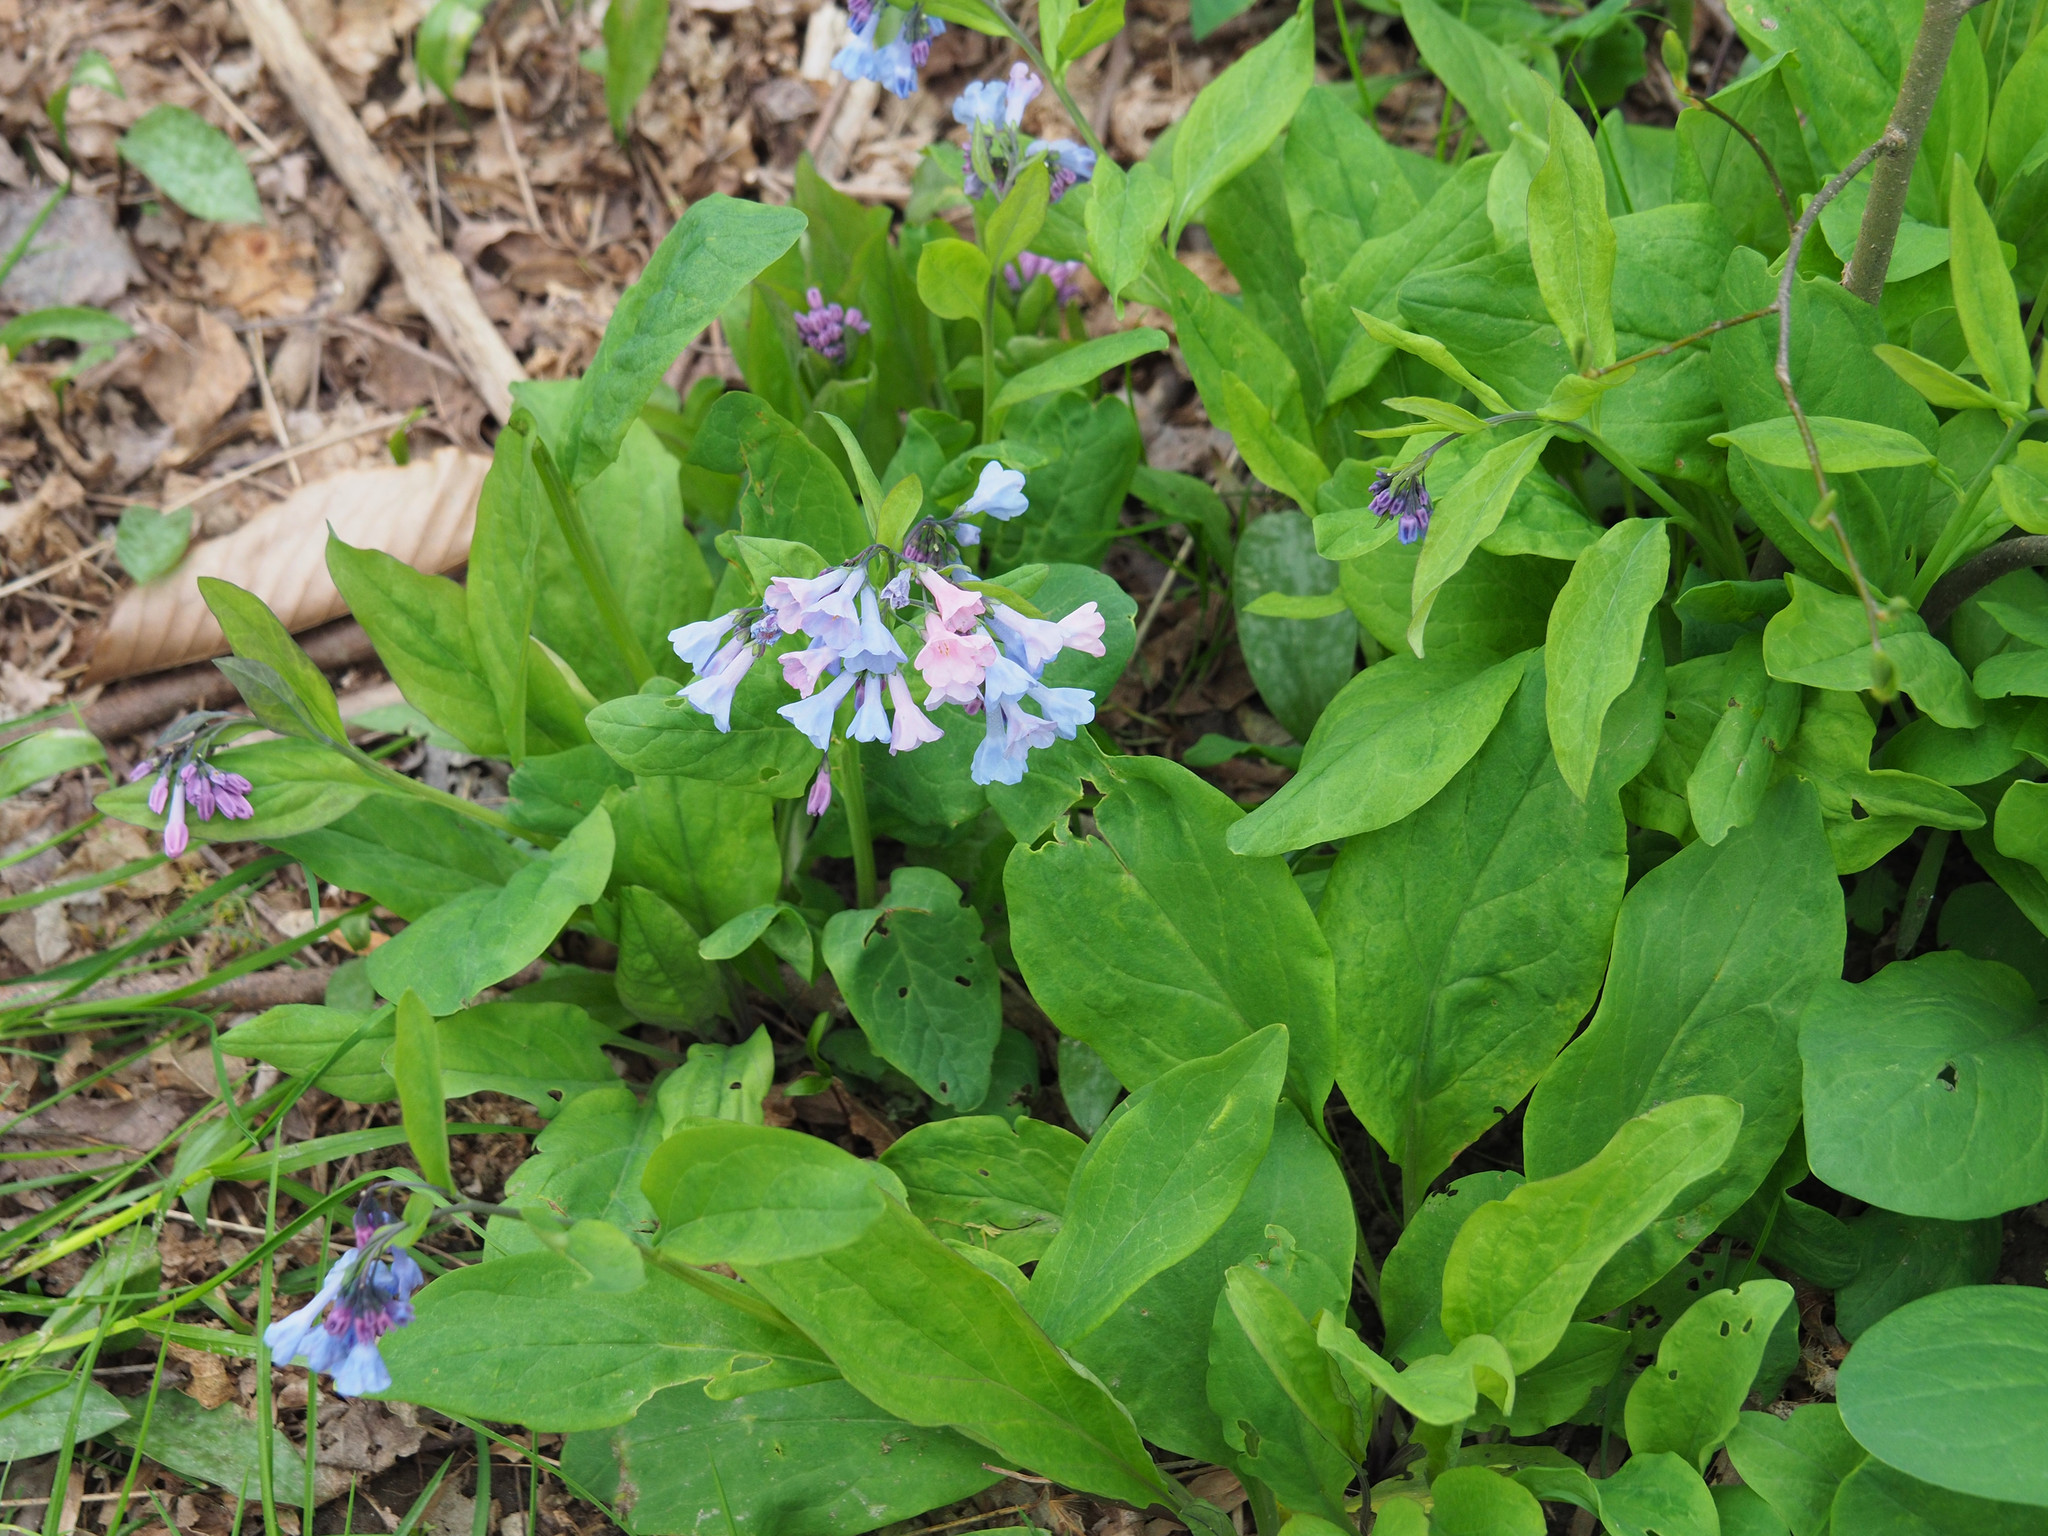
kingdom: Plantae
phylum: Tracheophyta
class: Magnoliopsida
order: Boraginales
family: Boraginaceae
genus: Mertensia
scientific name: Mertensia virginica
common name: Virginia bluebells
